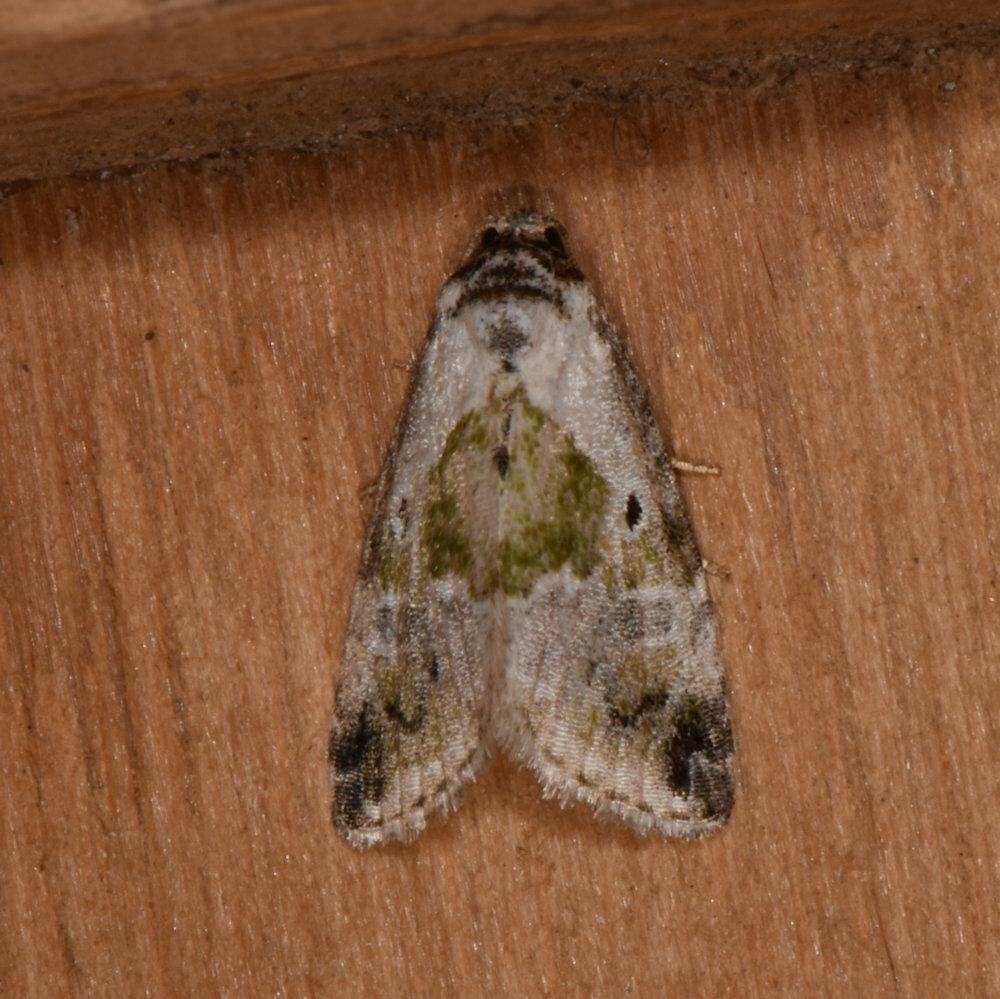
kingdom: Animalia
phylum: Arthropoda
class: Insecta
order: Lepidoptera
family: Noctuidae
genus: Maliattha
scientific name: Maliattha synochitis
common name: Black-dotted glyph
